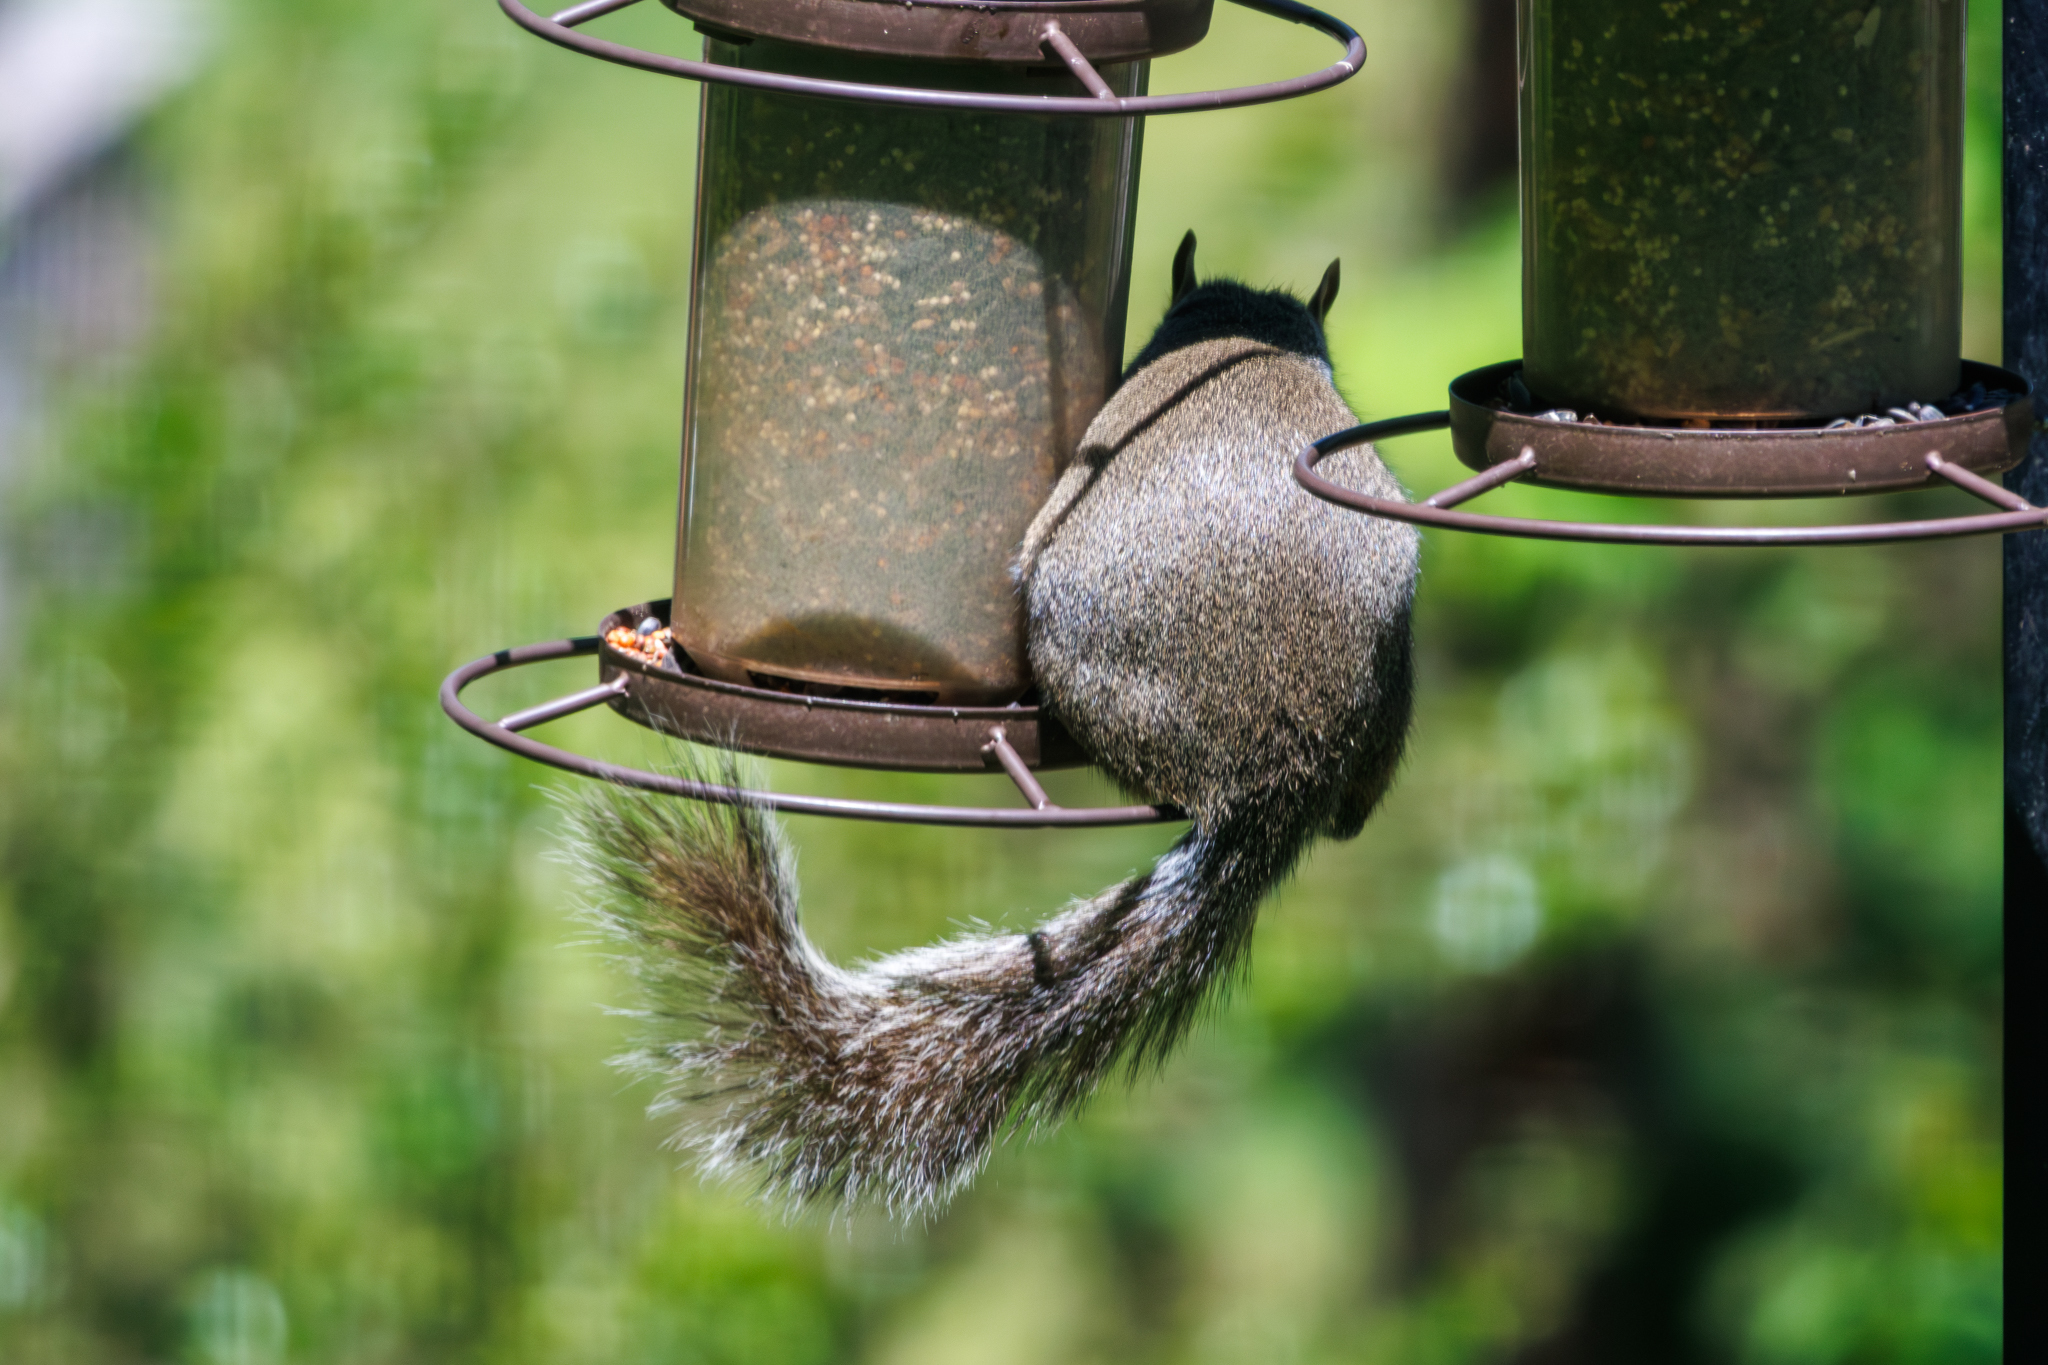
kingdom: Animalia
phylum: Chordata
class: Mammalia
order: Rodentia
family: Sciuridae
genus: Sciurus
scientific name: Sciurus carolinensis
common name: Eastern gray squirrel
